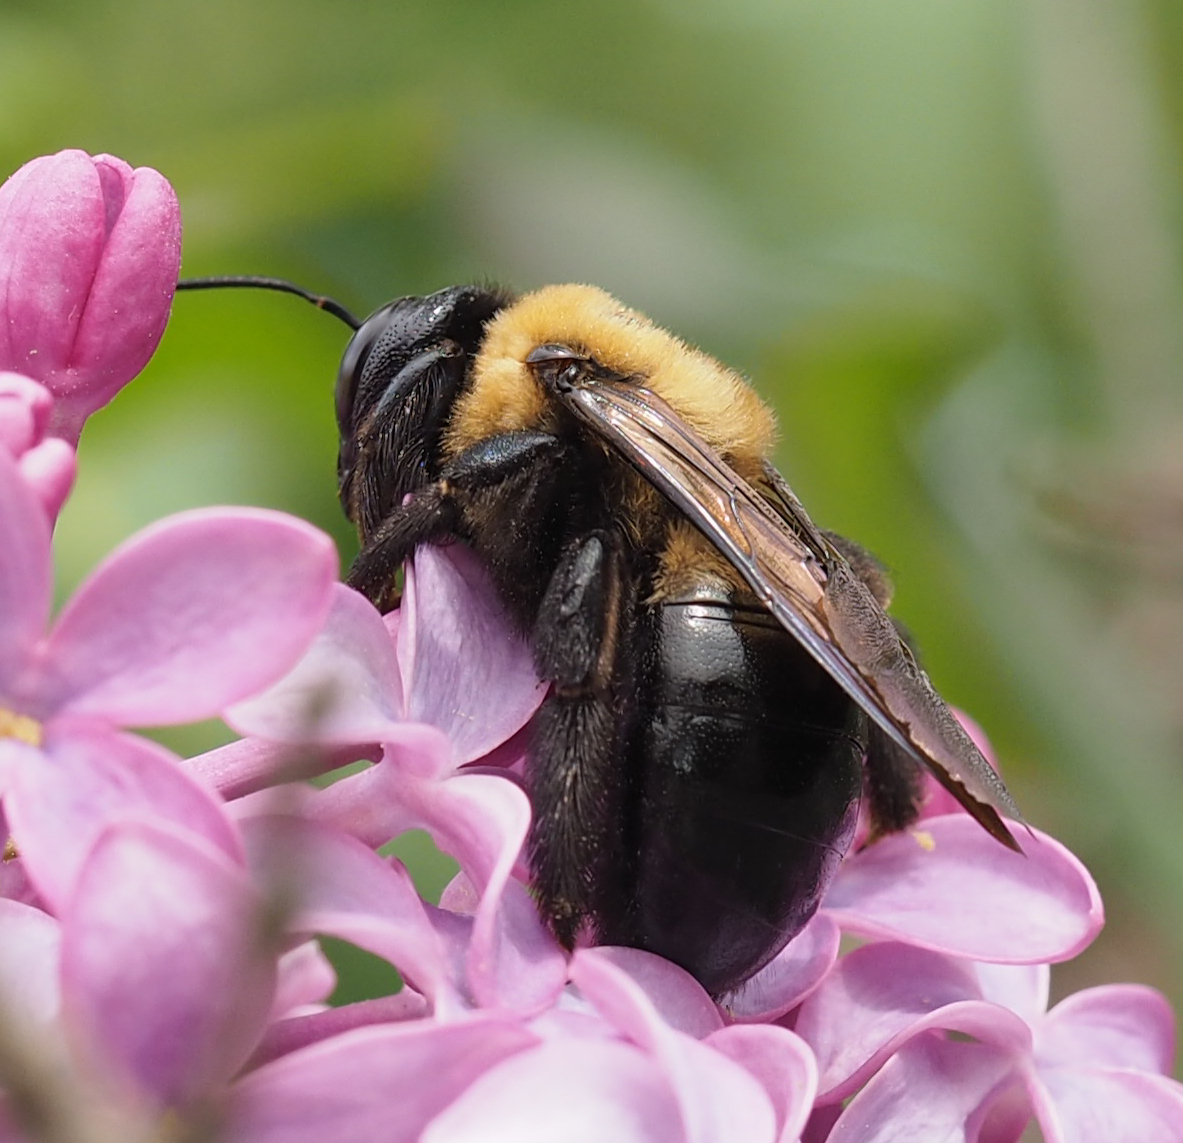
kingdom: Animalia
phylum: Arthropoda
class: Insecta
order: Hymenoptera
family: Apidae
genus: Xylocopa
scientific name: Xylocopa virginica
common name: Carpenter bee
